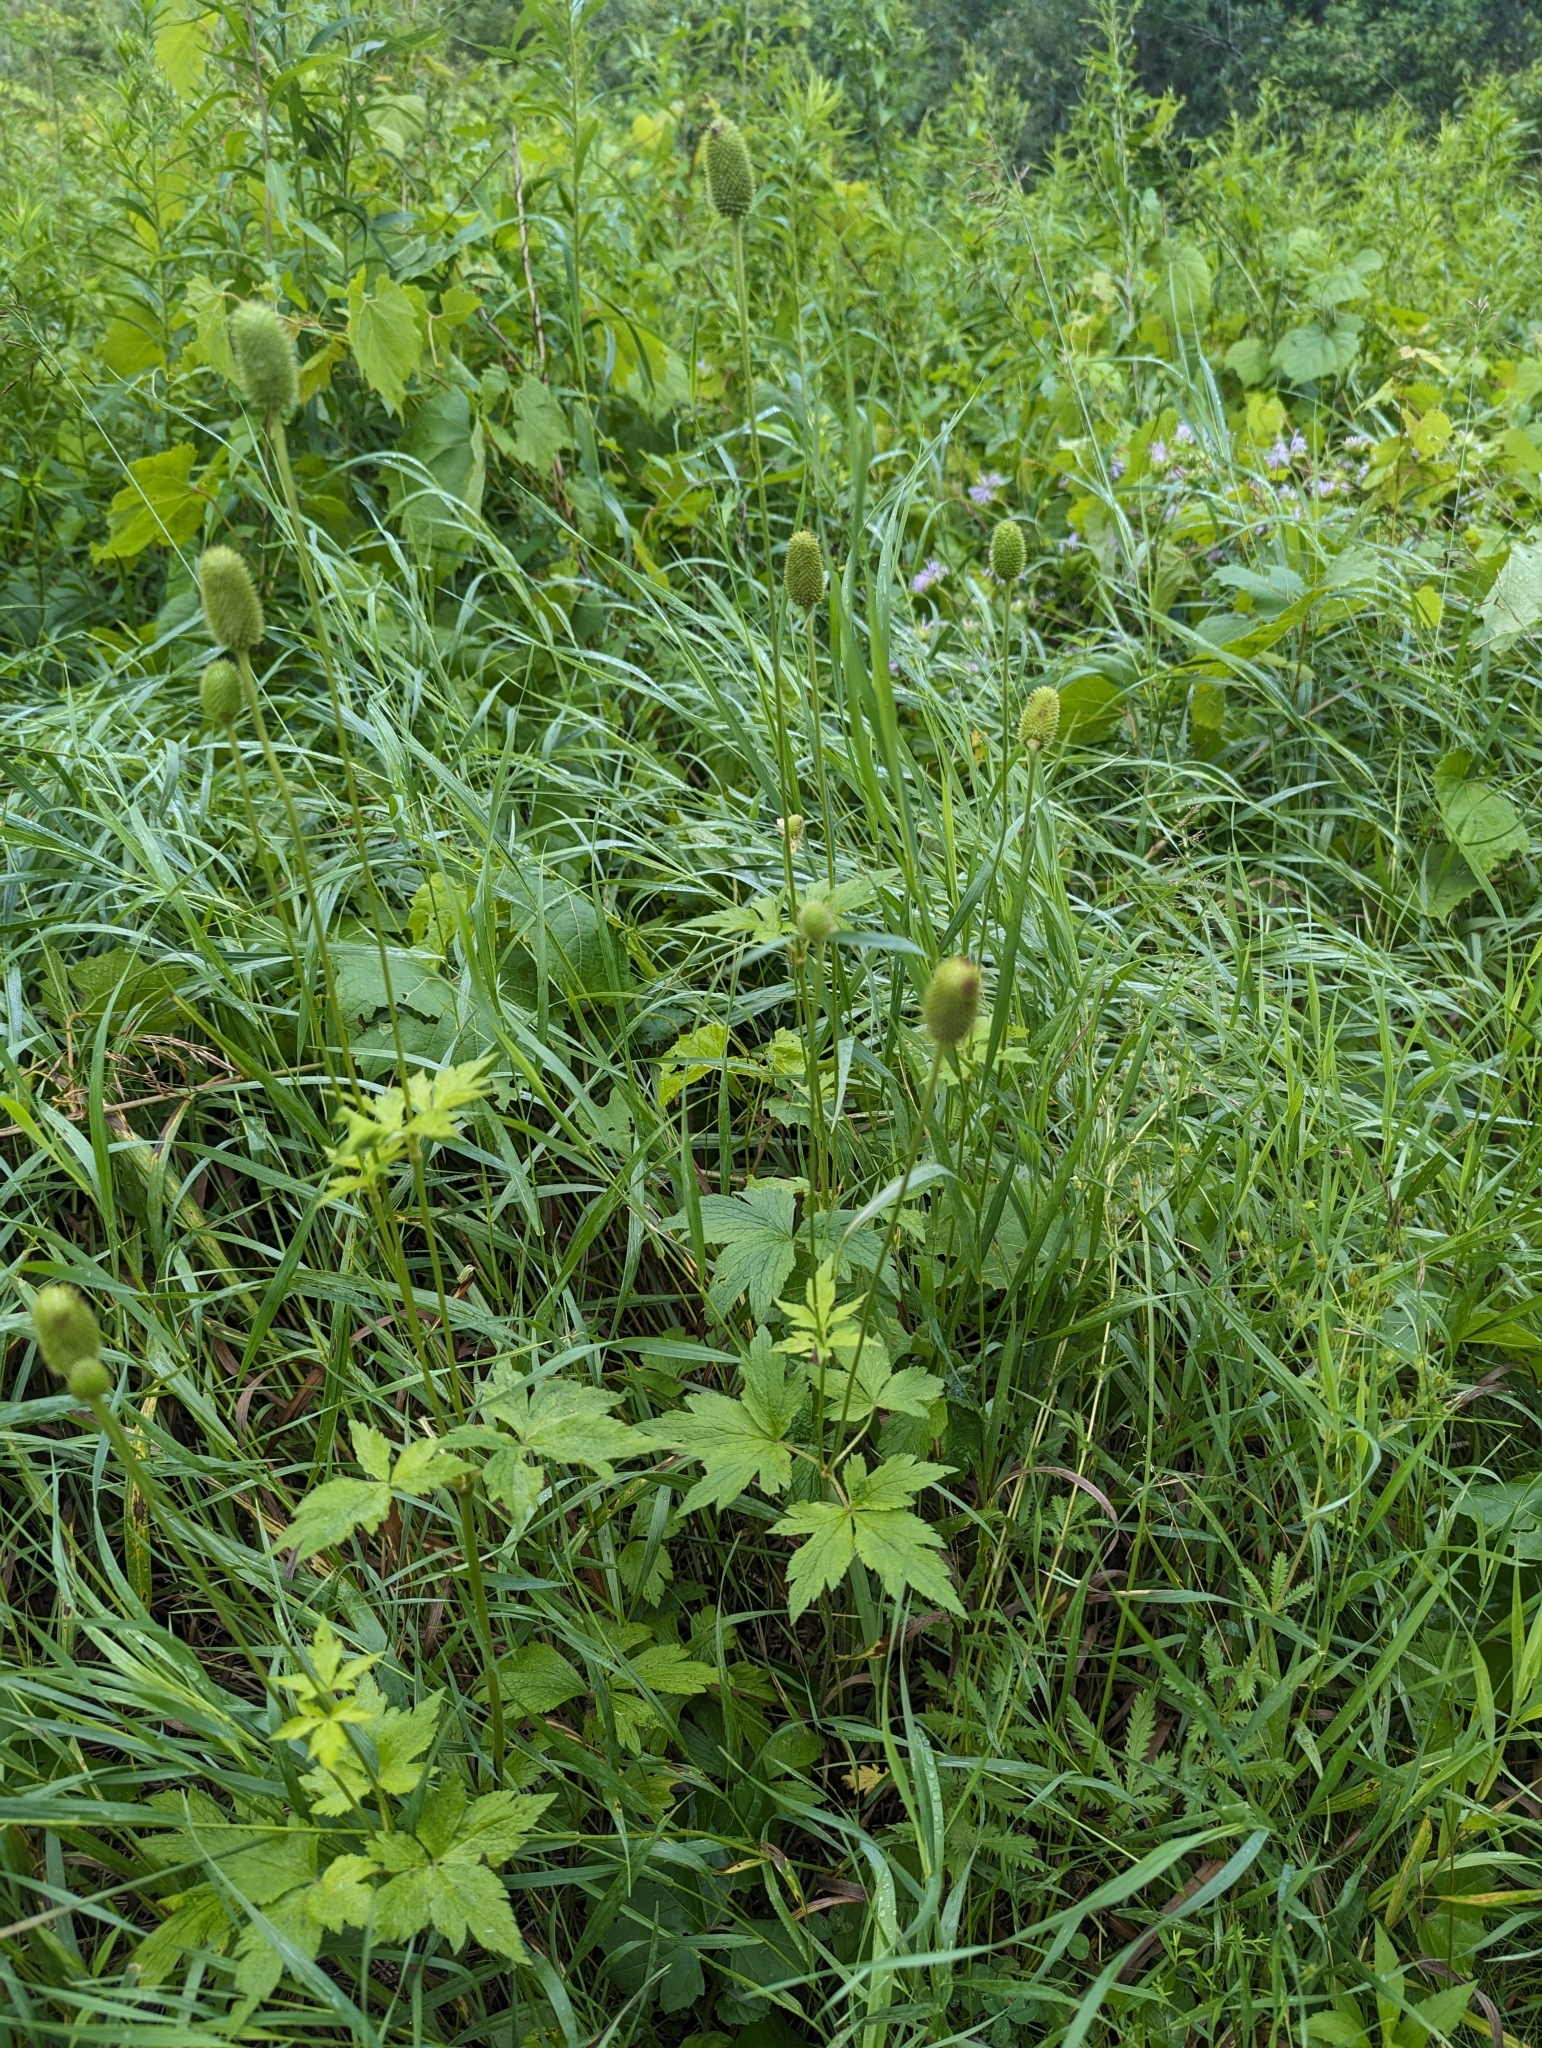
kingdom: Plantae
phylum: Tracheophyta
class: Magnoliopsida
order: Ranunculales
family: Ranunculaceae
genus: Anemone
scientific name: Anemone virginiana
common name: Tall anemone
